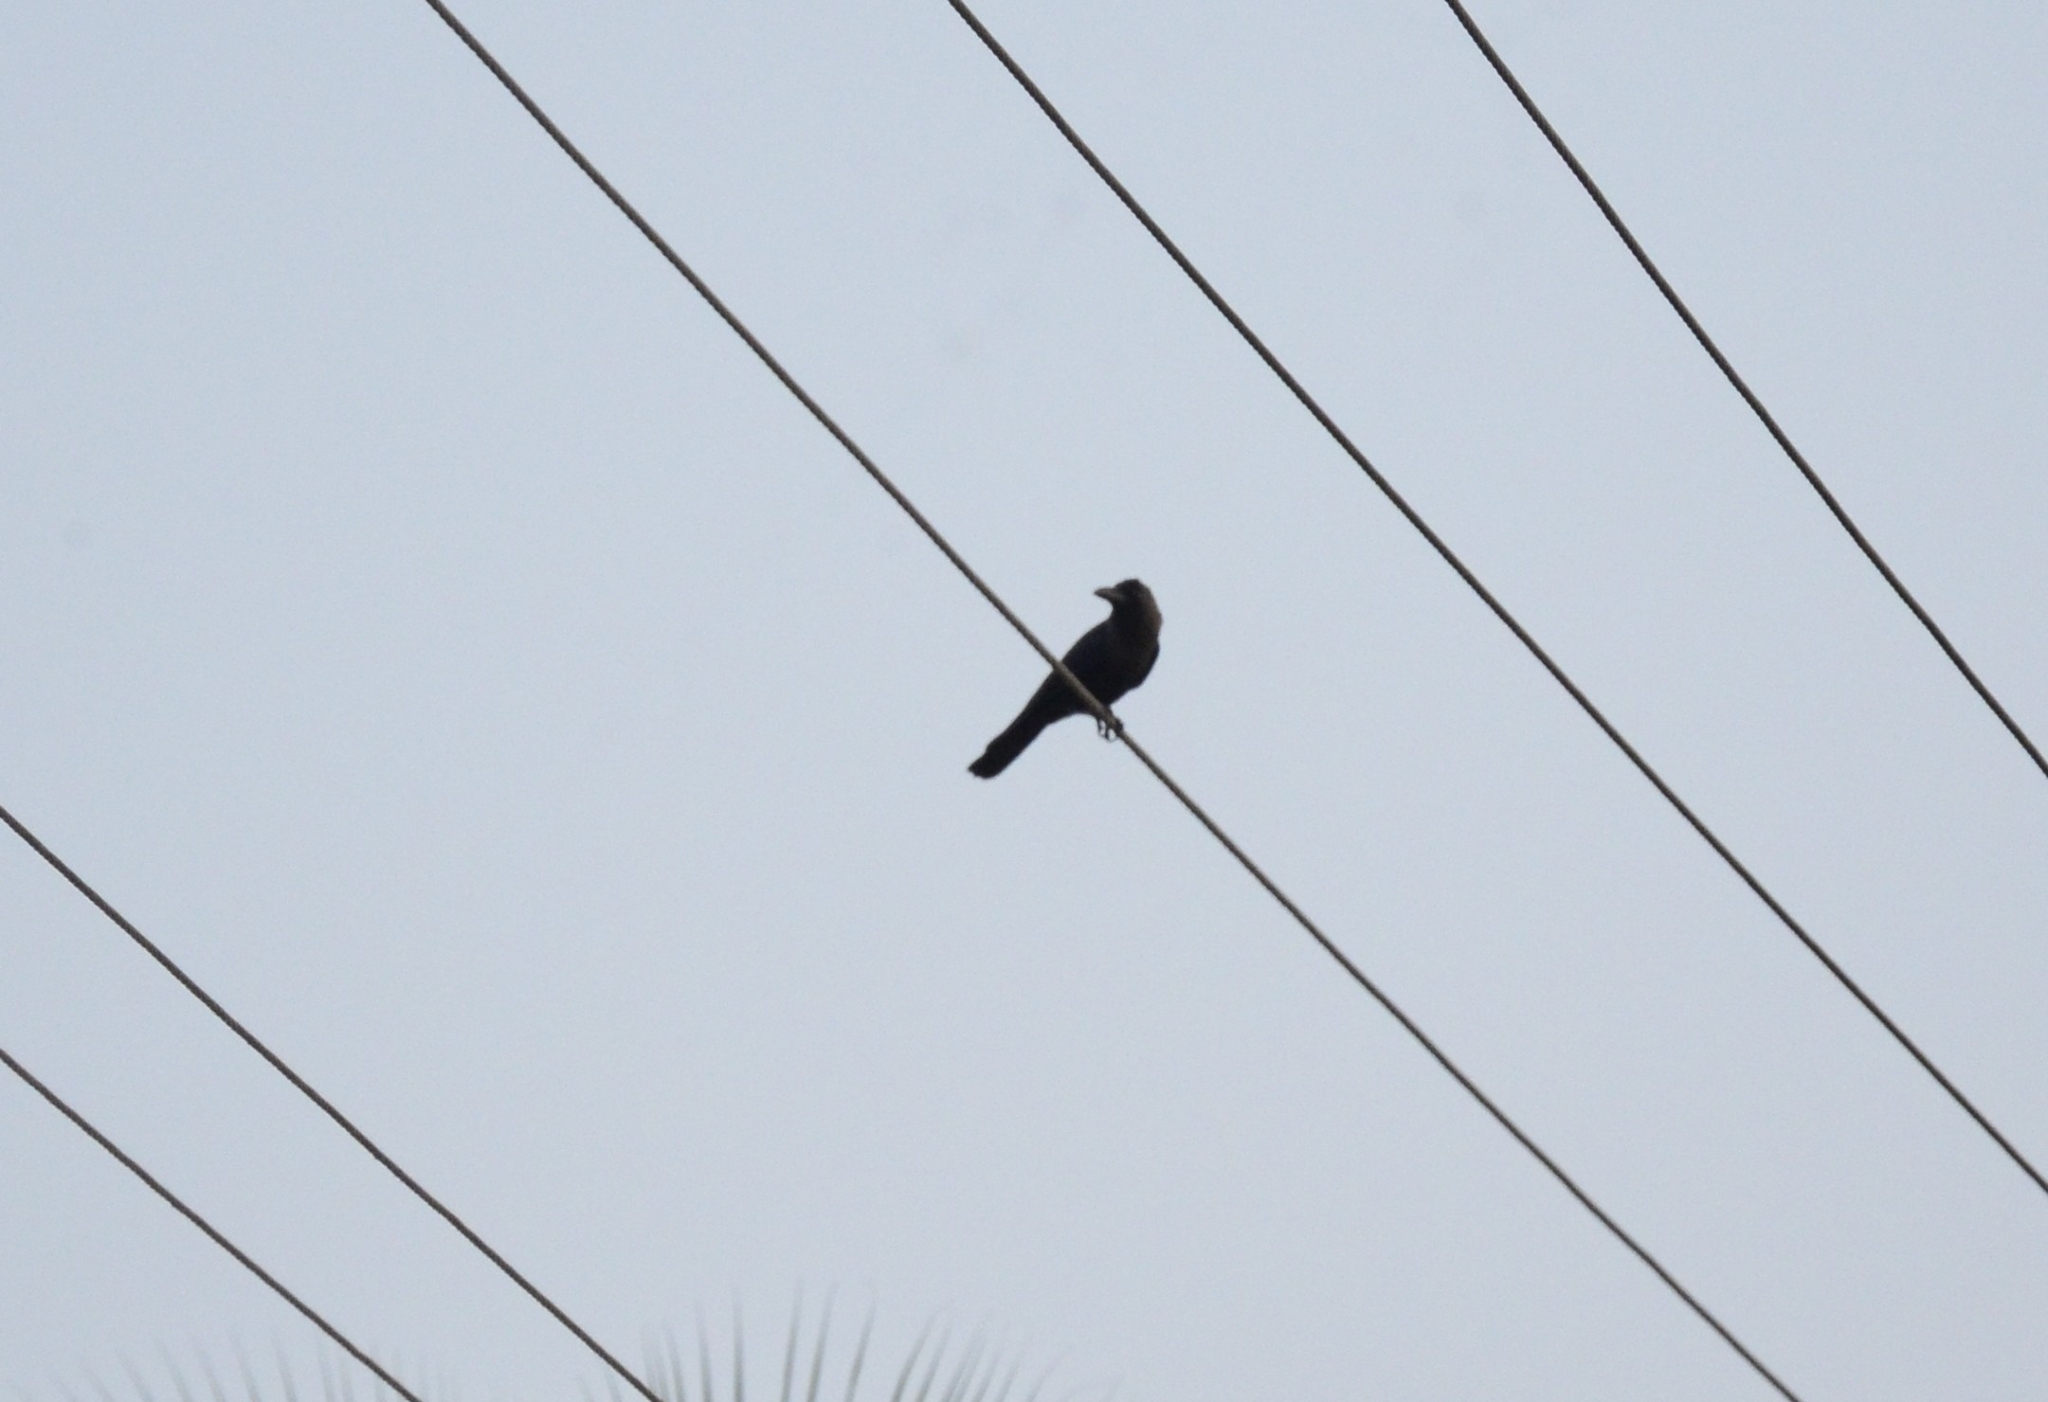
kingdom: Animalia
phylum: Chordata
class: Aves
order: Passeriformes
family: Corvidae
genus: Corvus
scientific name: Corvus splendens
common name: House crow
